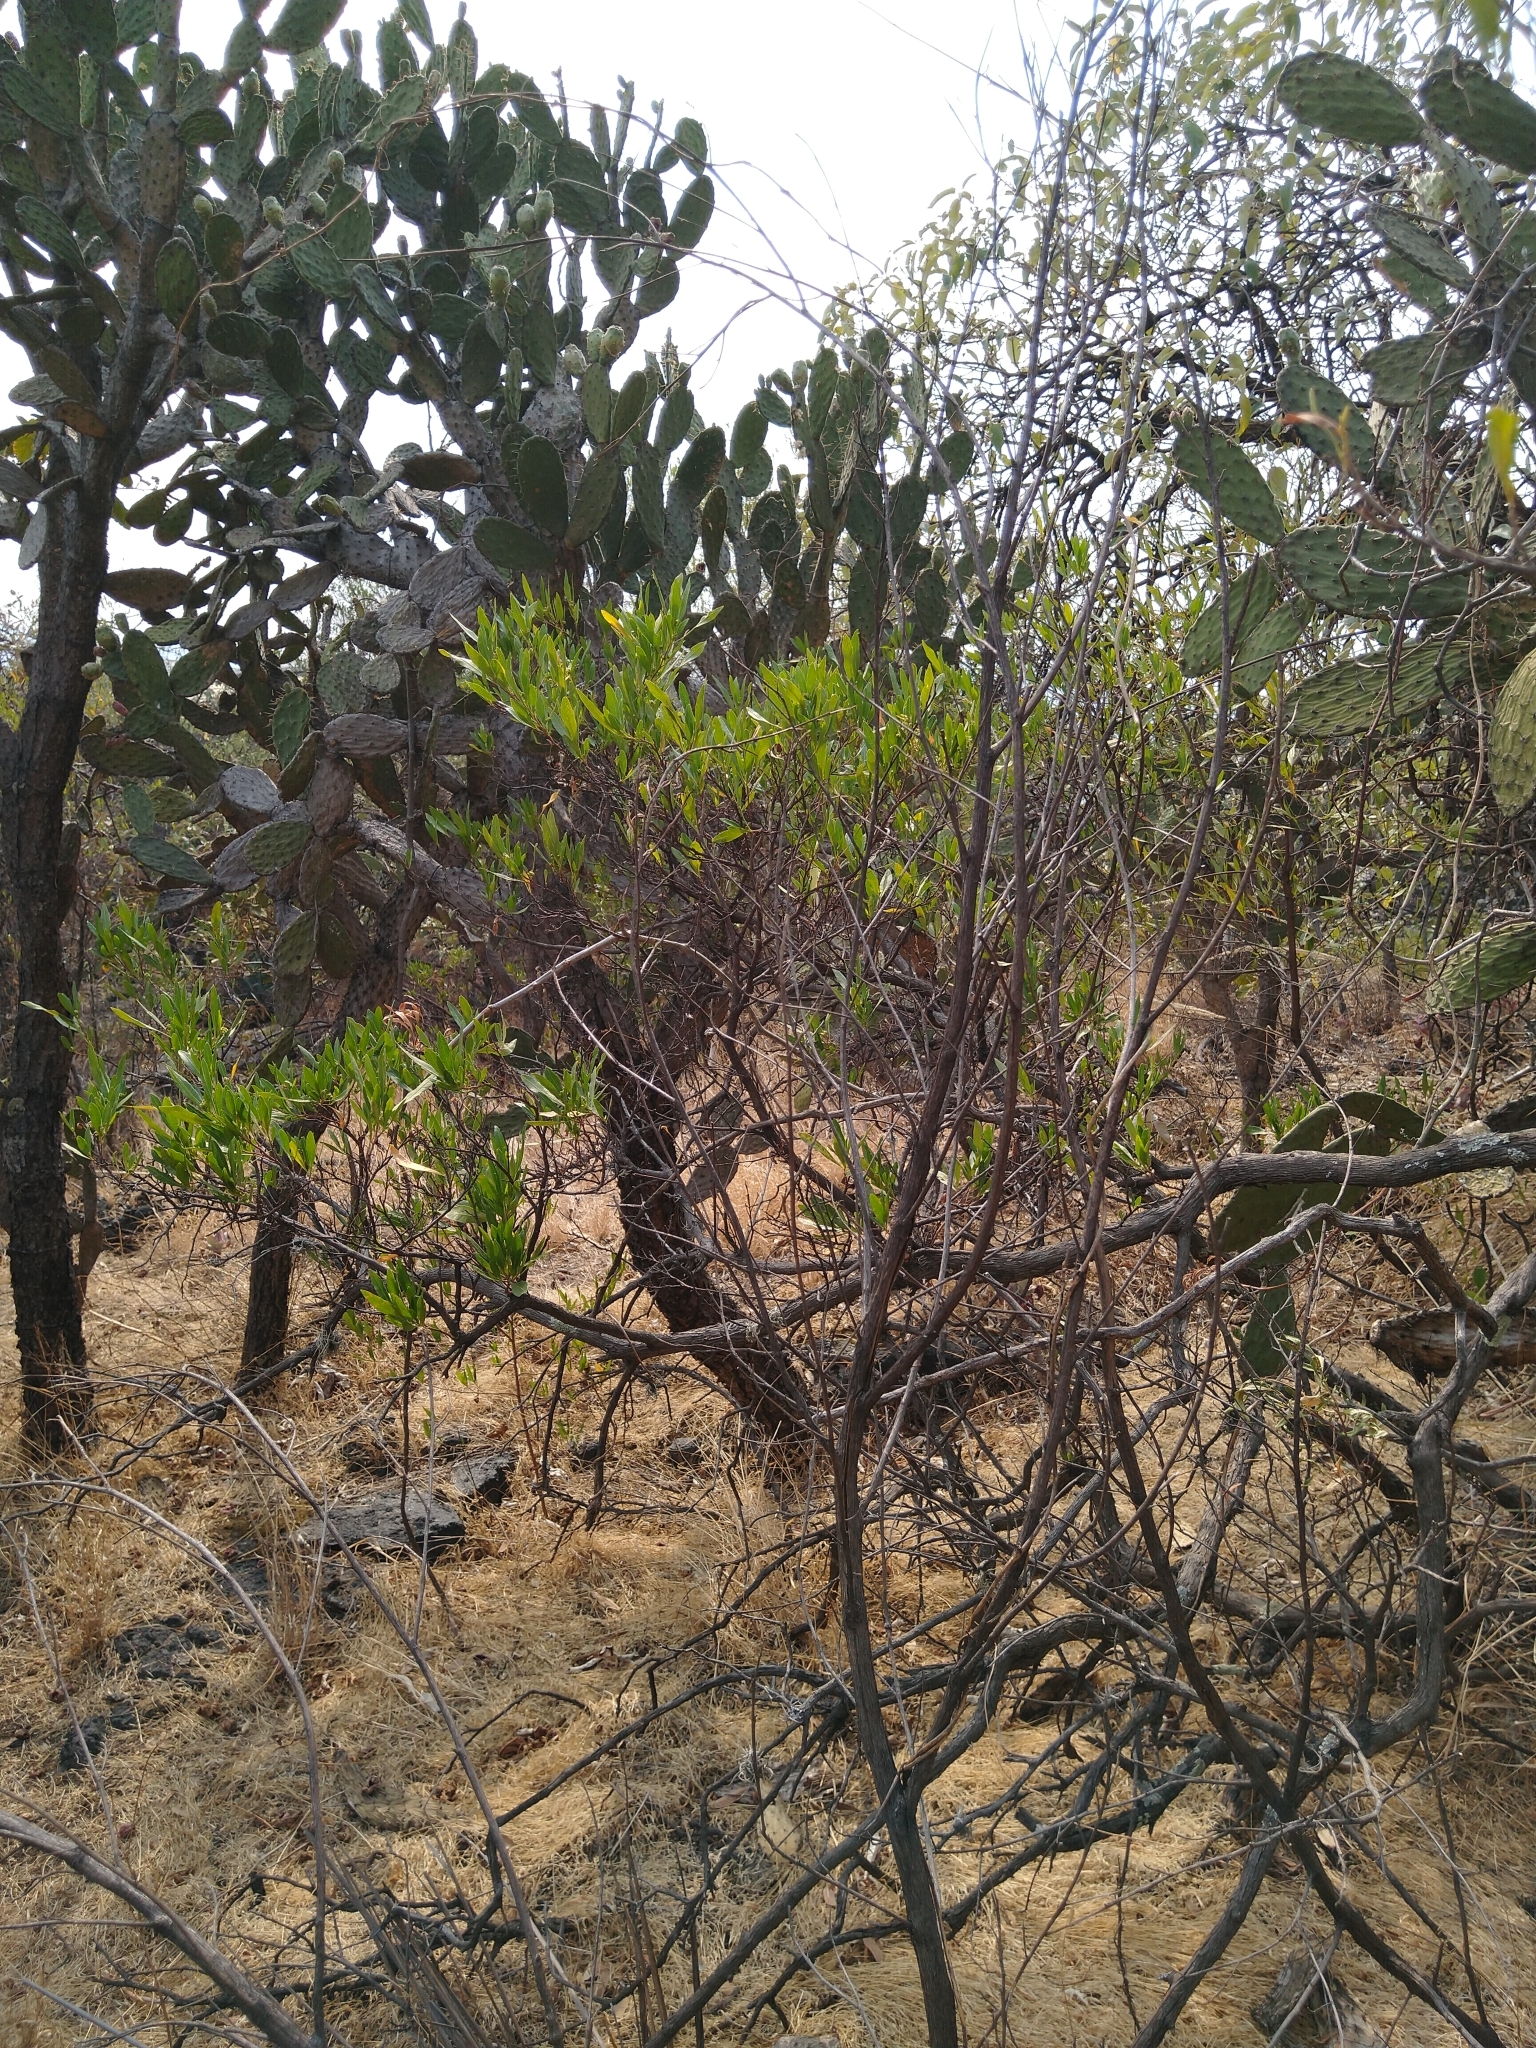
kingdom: Plantae
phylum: Tracheophyta
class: Magnoliopsida
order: Sapindales
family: Sapindaceae
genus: Dodonaea
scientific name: Dodonaea viscosa
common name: Hopbush
